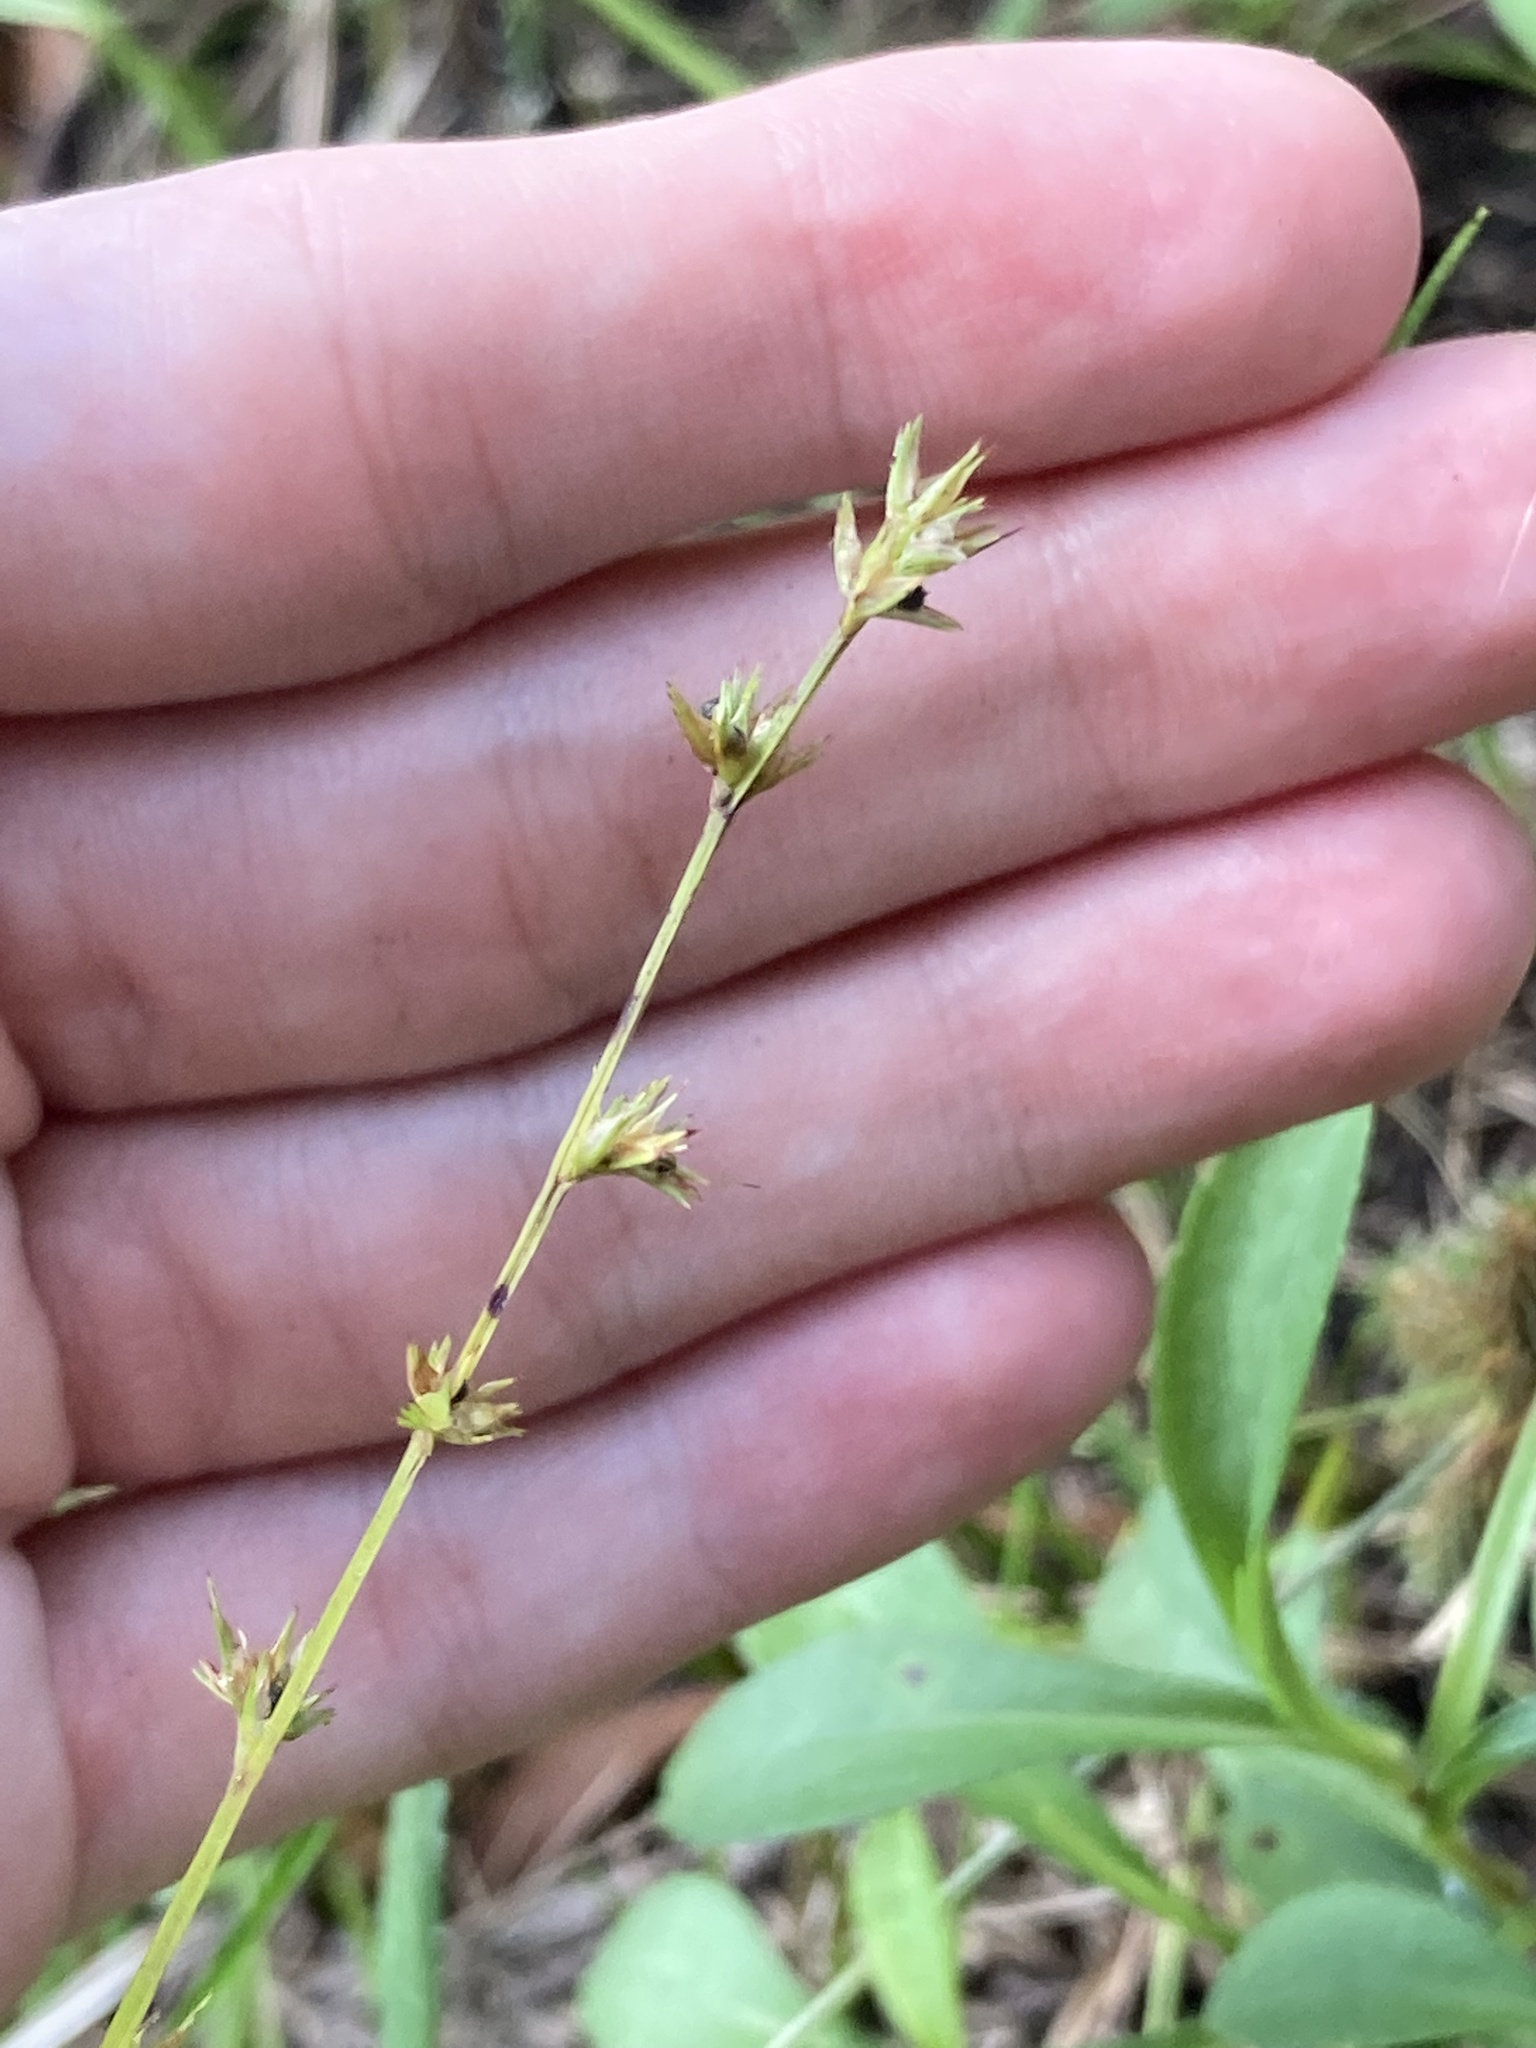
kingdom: Plantae
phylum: Tracheophyta
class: Liliopsida
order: Poales
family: Cyperaceae
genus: Scleria
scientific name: Scleria verticillata
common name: Low nutrush
